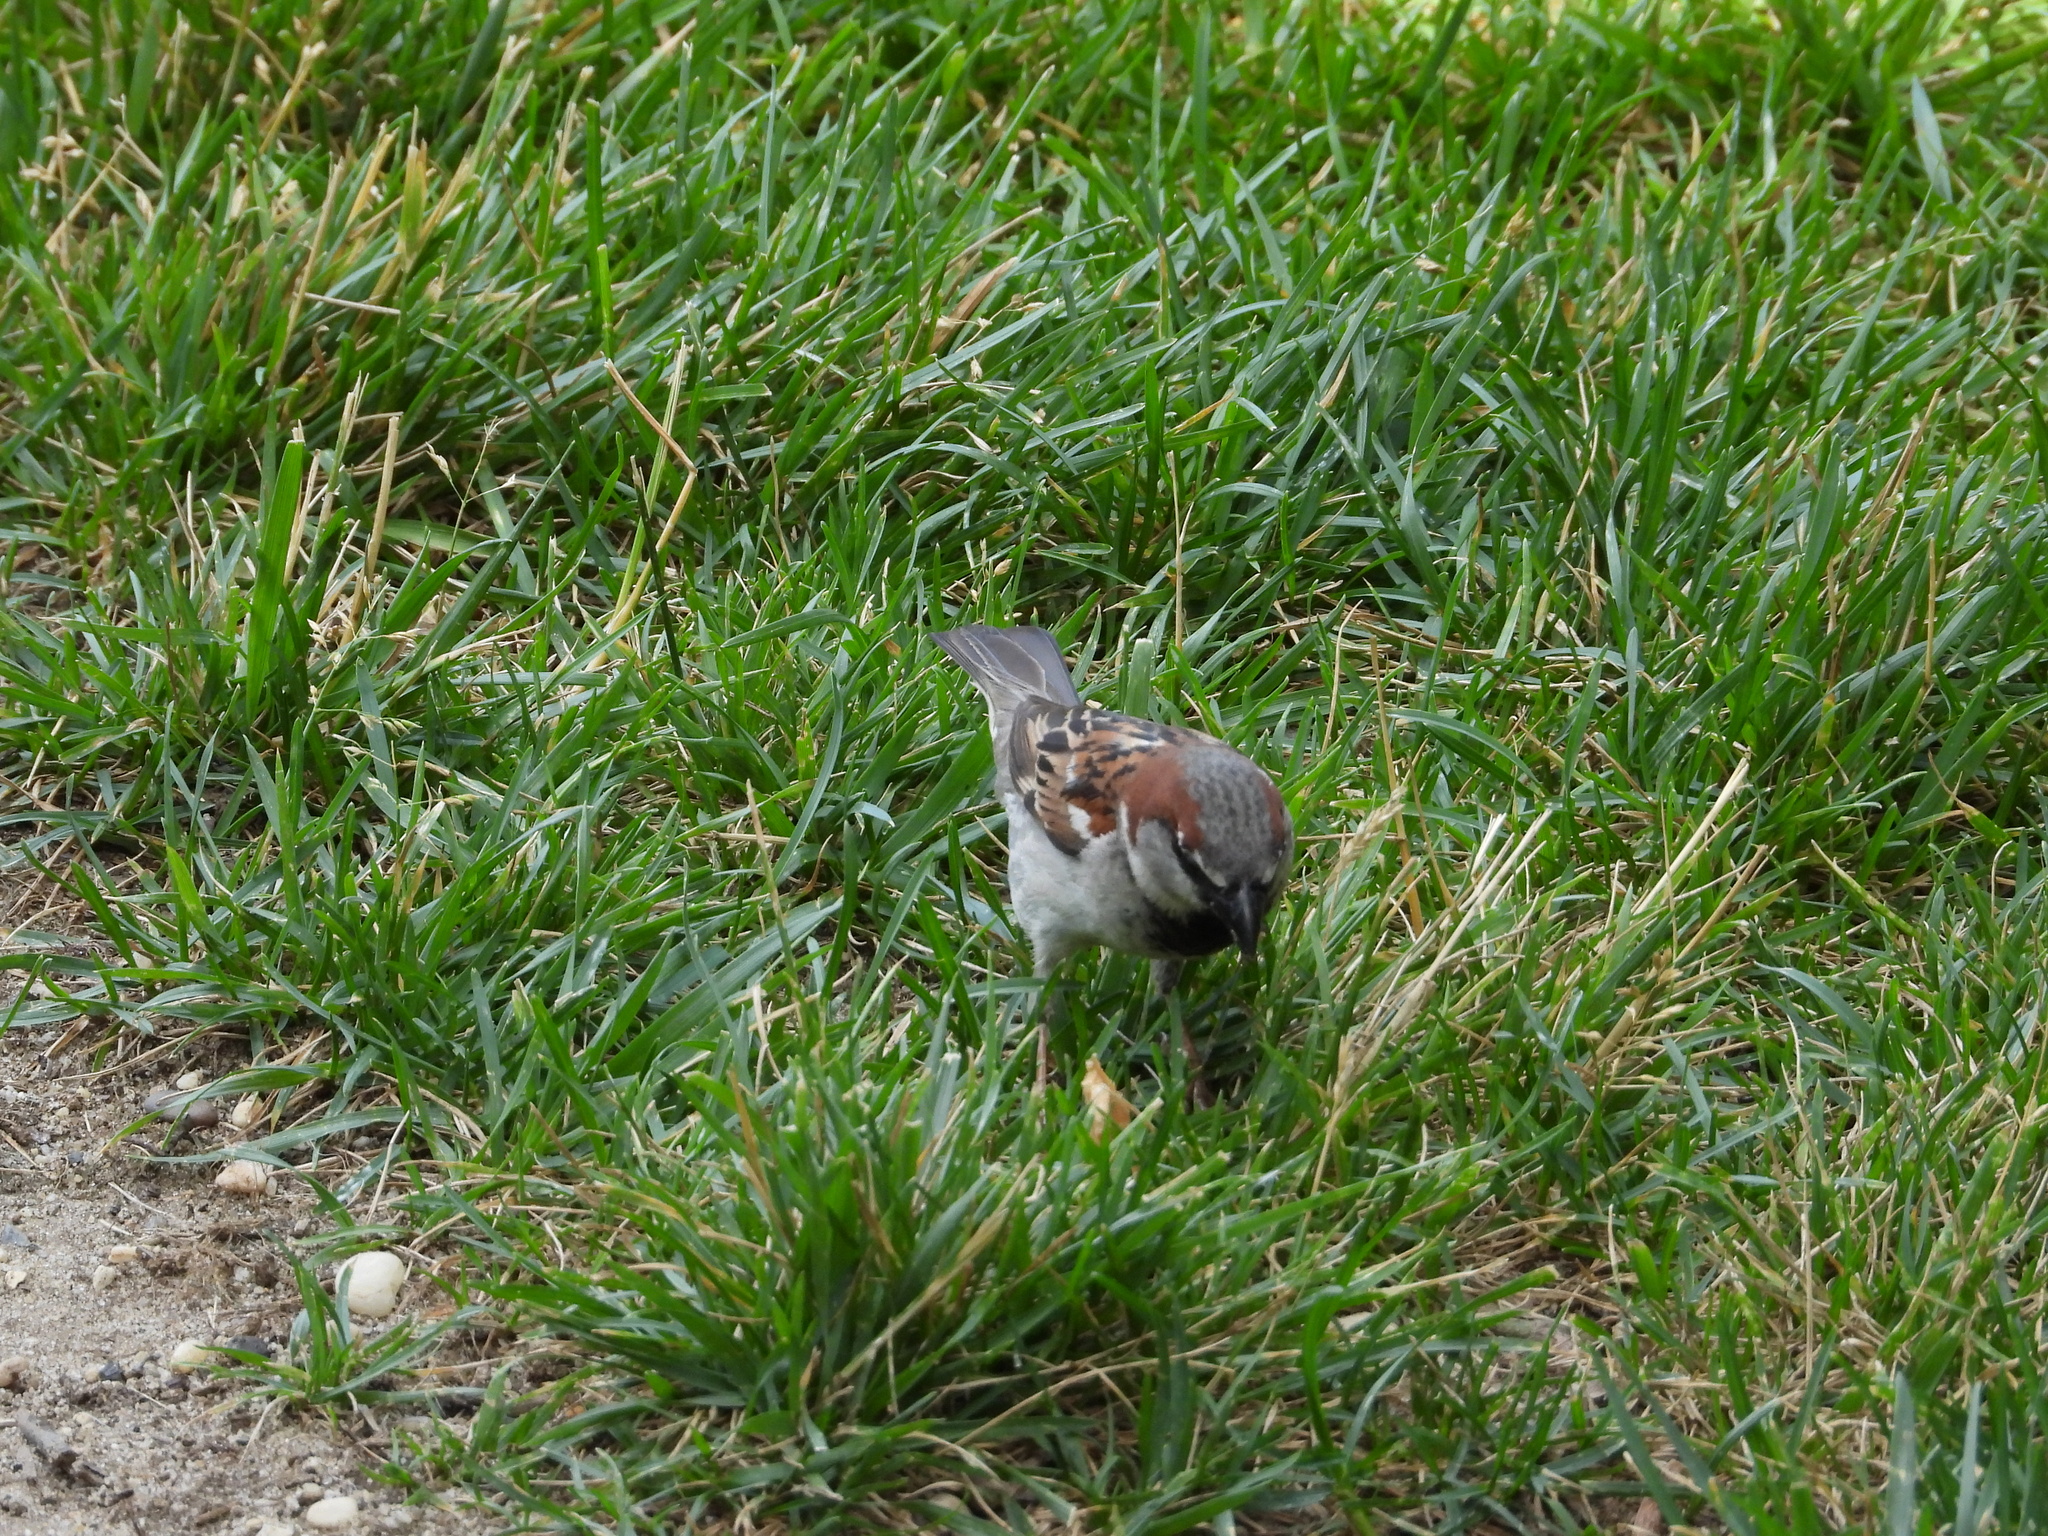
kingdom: Animalia
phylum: Chordata
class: Aves
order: Passeriformes
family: Passeridae
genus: Passer
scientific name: Passer domesticus
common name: House sparrow
